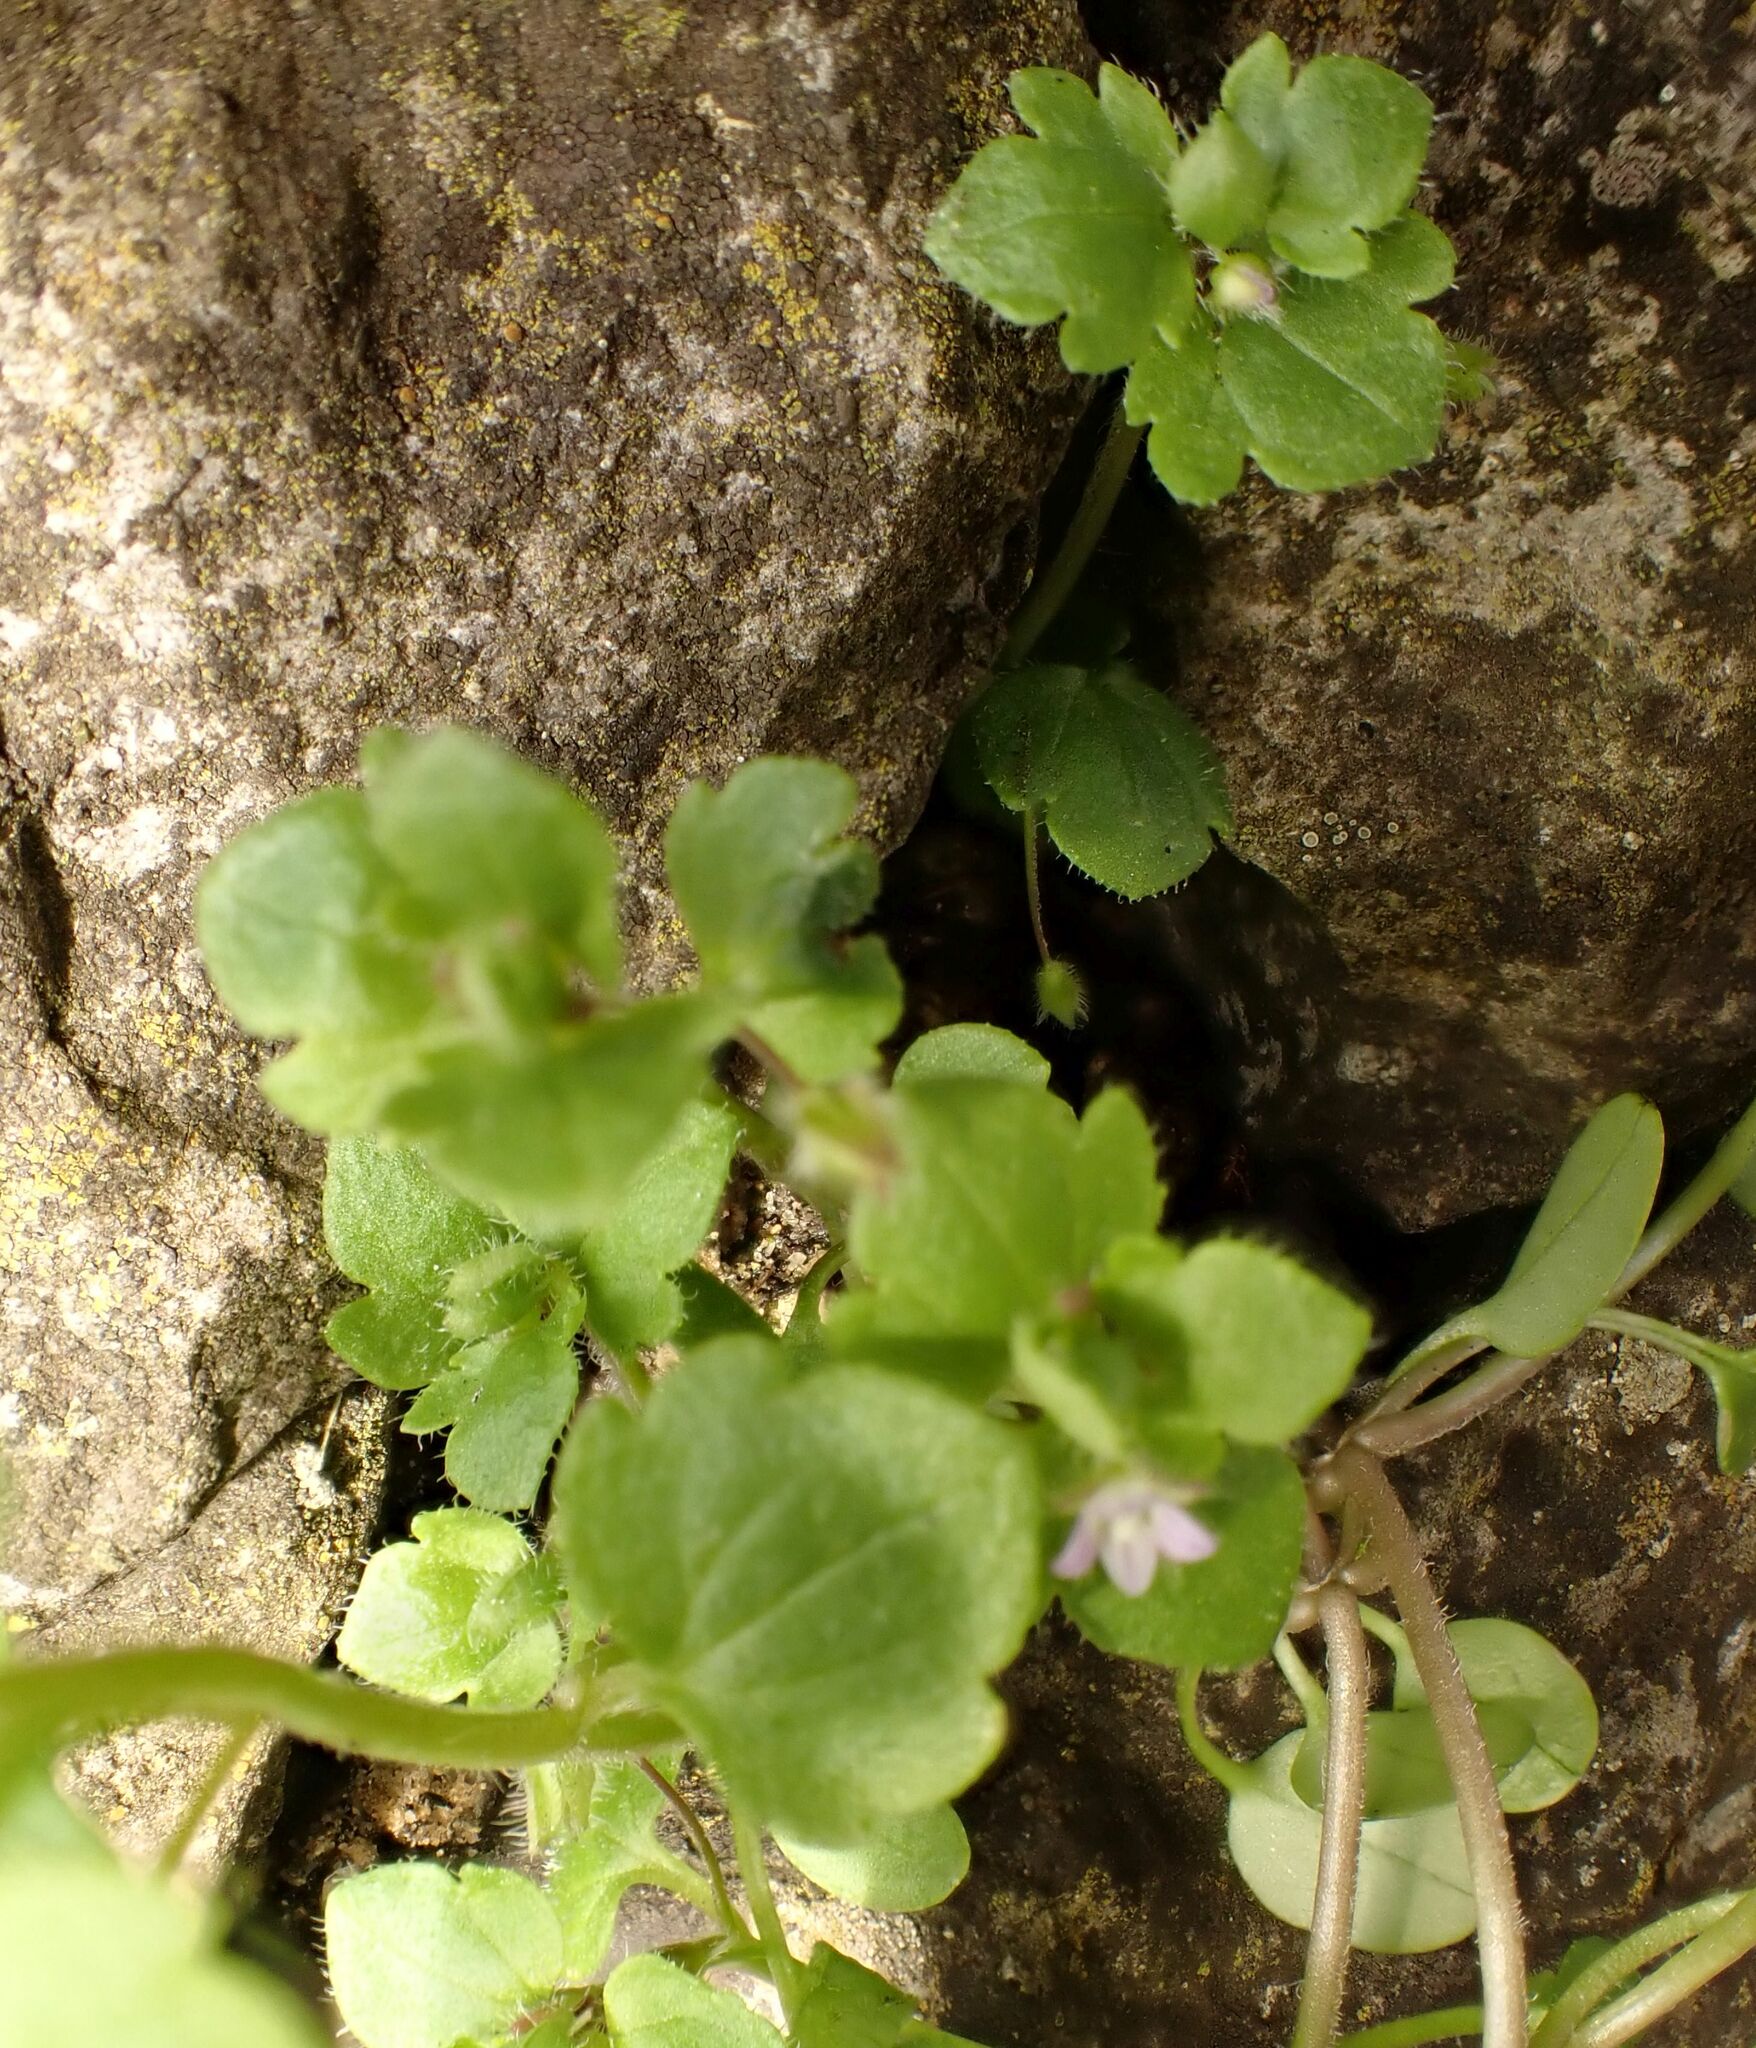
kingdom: Plantae
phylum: Tracheophyta
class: Magnoliopsida
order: Lamiales
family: Plantaginaceae
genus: Veronica
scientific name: Veronica sublobata
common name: False ivy-leaved speedwell
